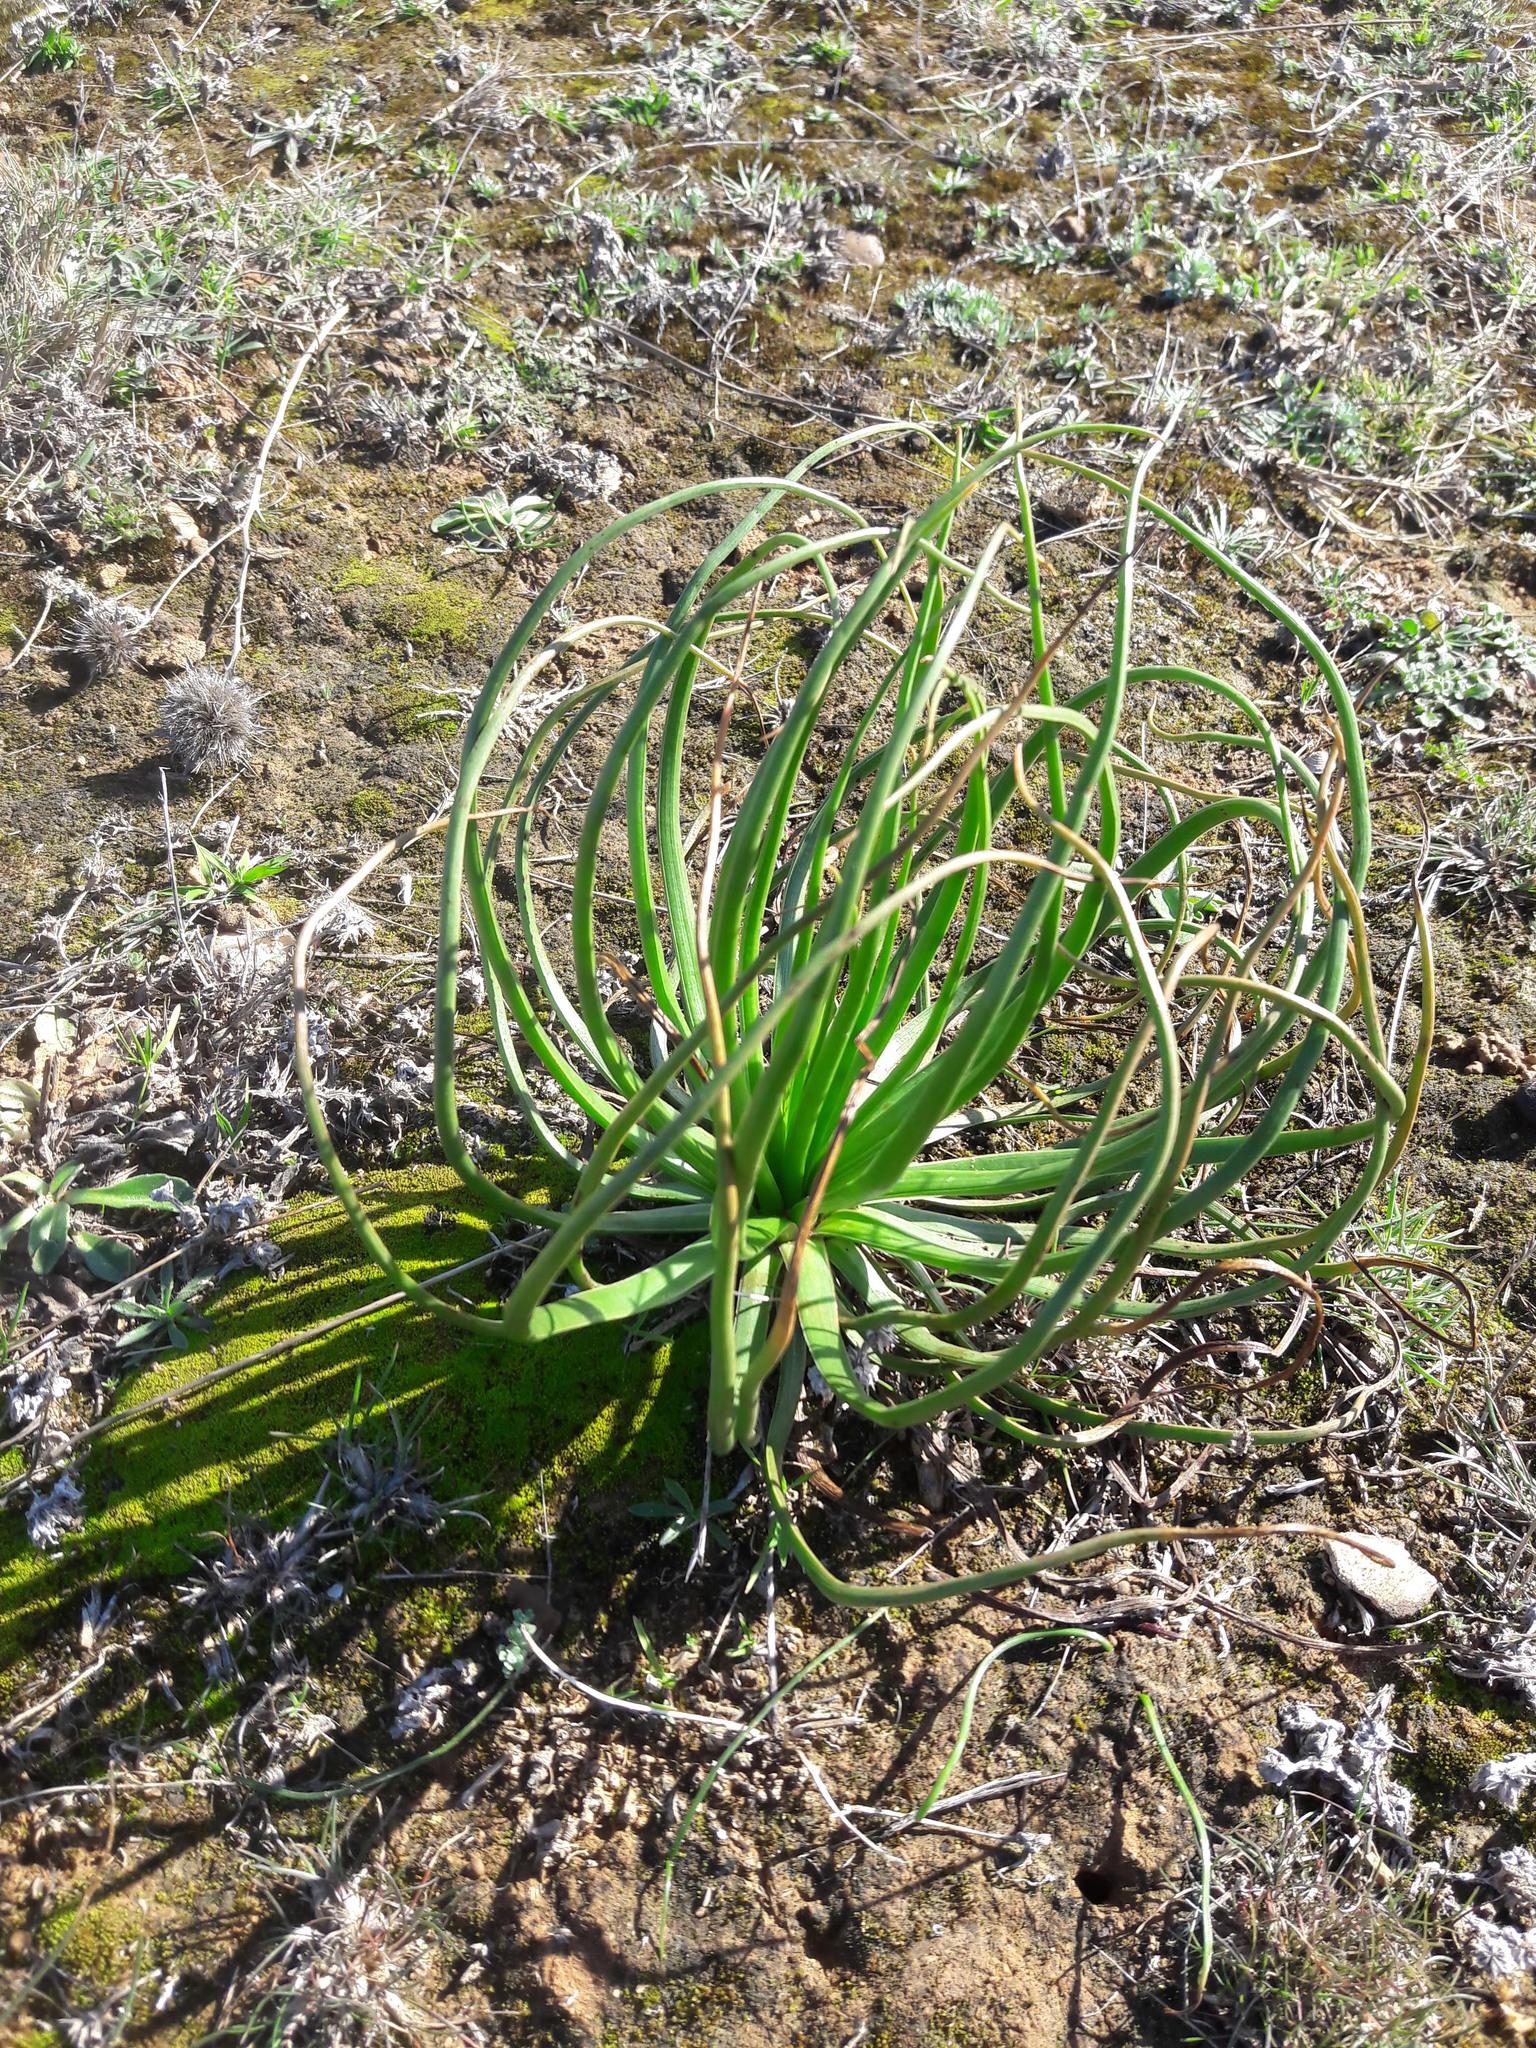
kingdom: Plantae
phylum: Tracheophyta
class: Liliopsida
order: Asparagales
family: Asphodelaceae
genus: Asphodelus
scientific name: Asphodelus ayardii
